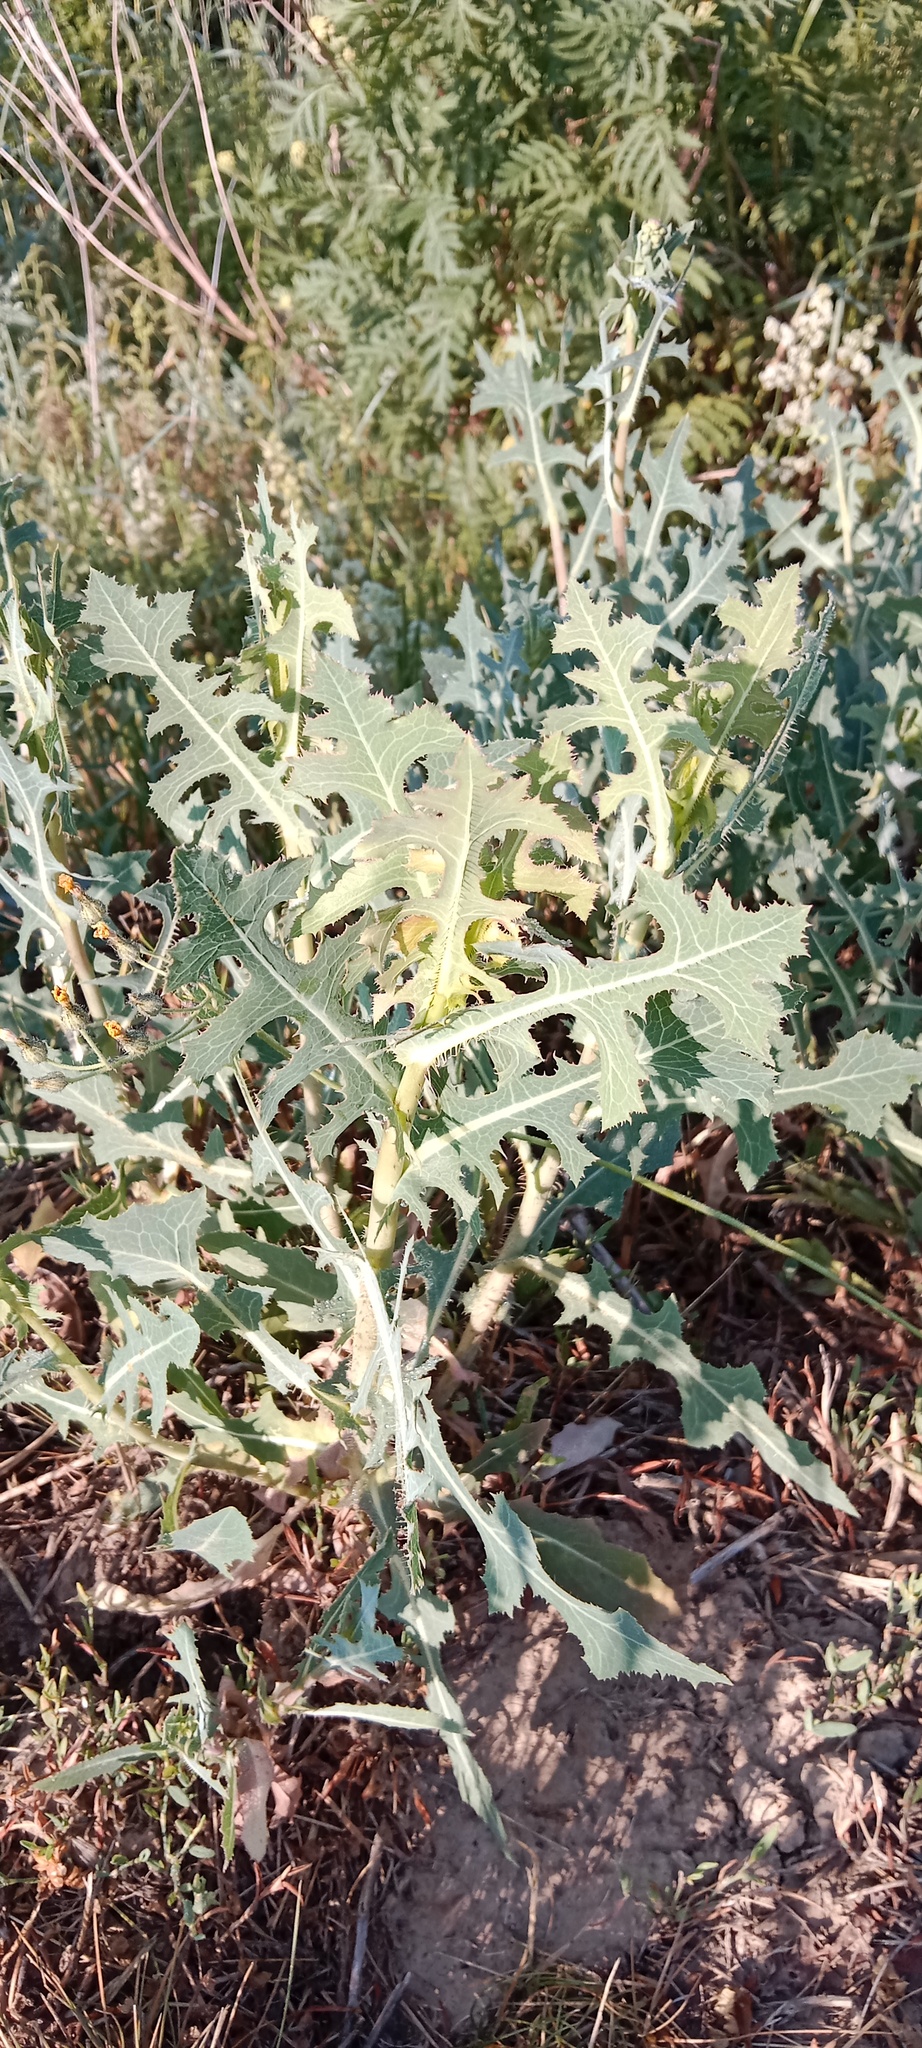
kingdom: Plantae
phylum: Tracheophyta
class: Magnoliopsida
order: Asterales
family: Asteraceae
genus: Lactuca
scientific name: Lactuca serriola
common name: Prickly lettuce
